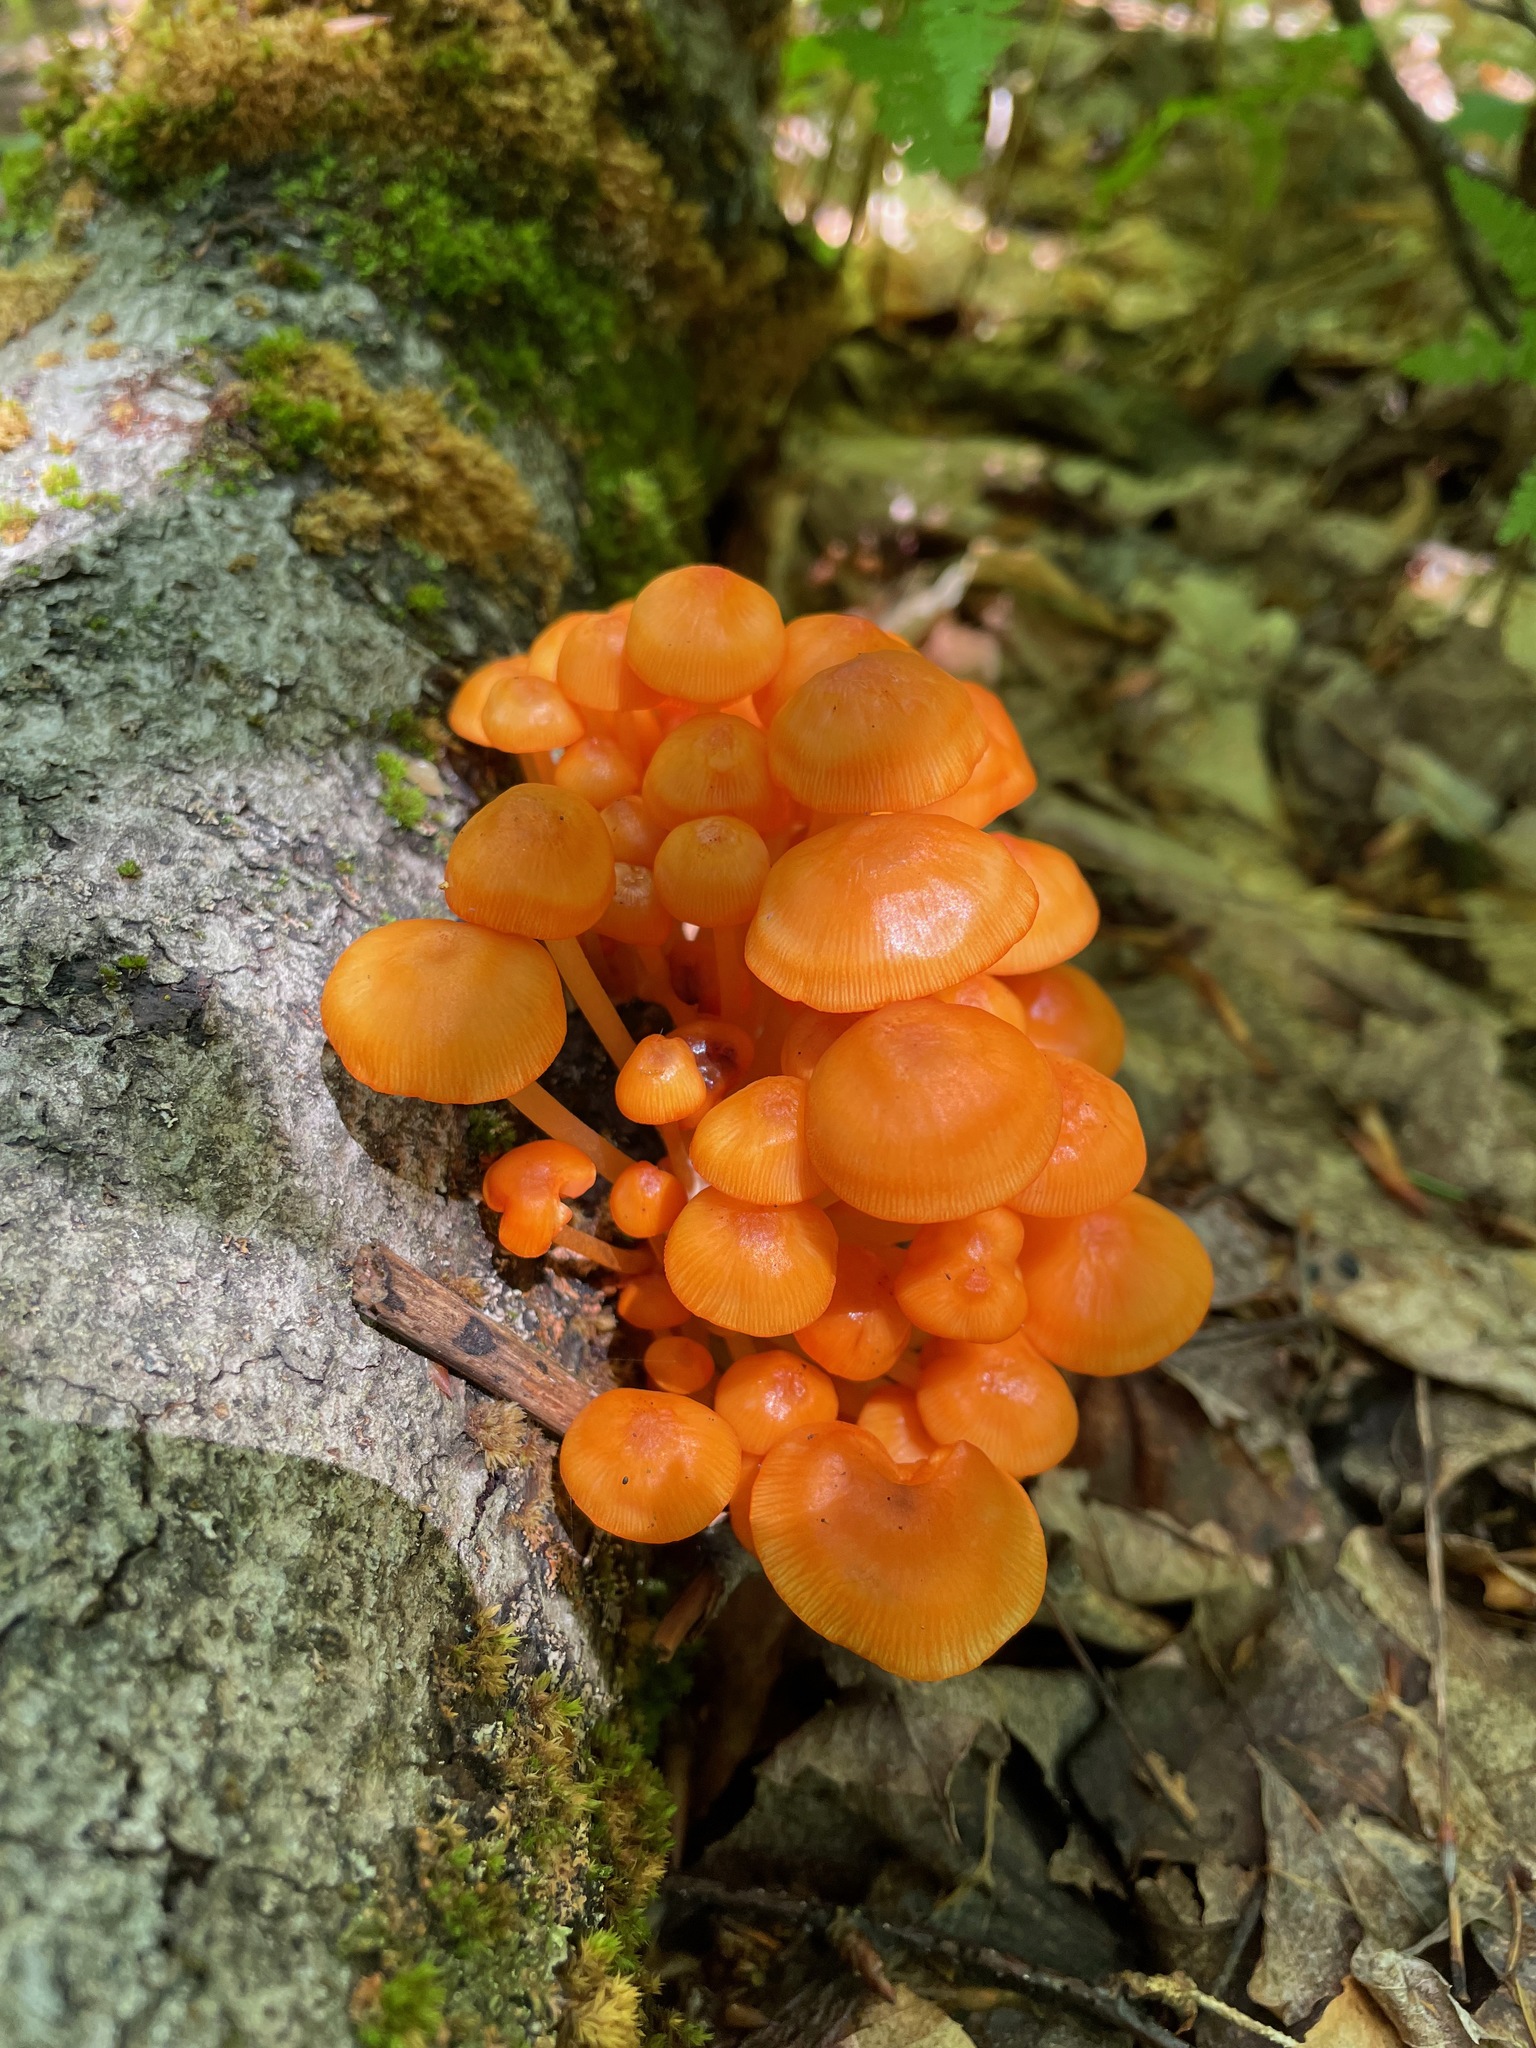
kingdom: Fungi
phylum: Basidiomycota
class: Agaricomycetes
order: Agaricales
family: Mycenaceae
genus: Mycena
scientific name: Mycena leaiana
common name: Orange mycena
